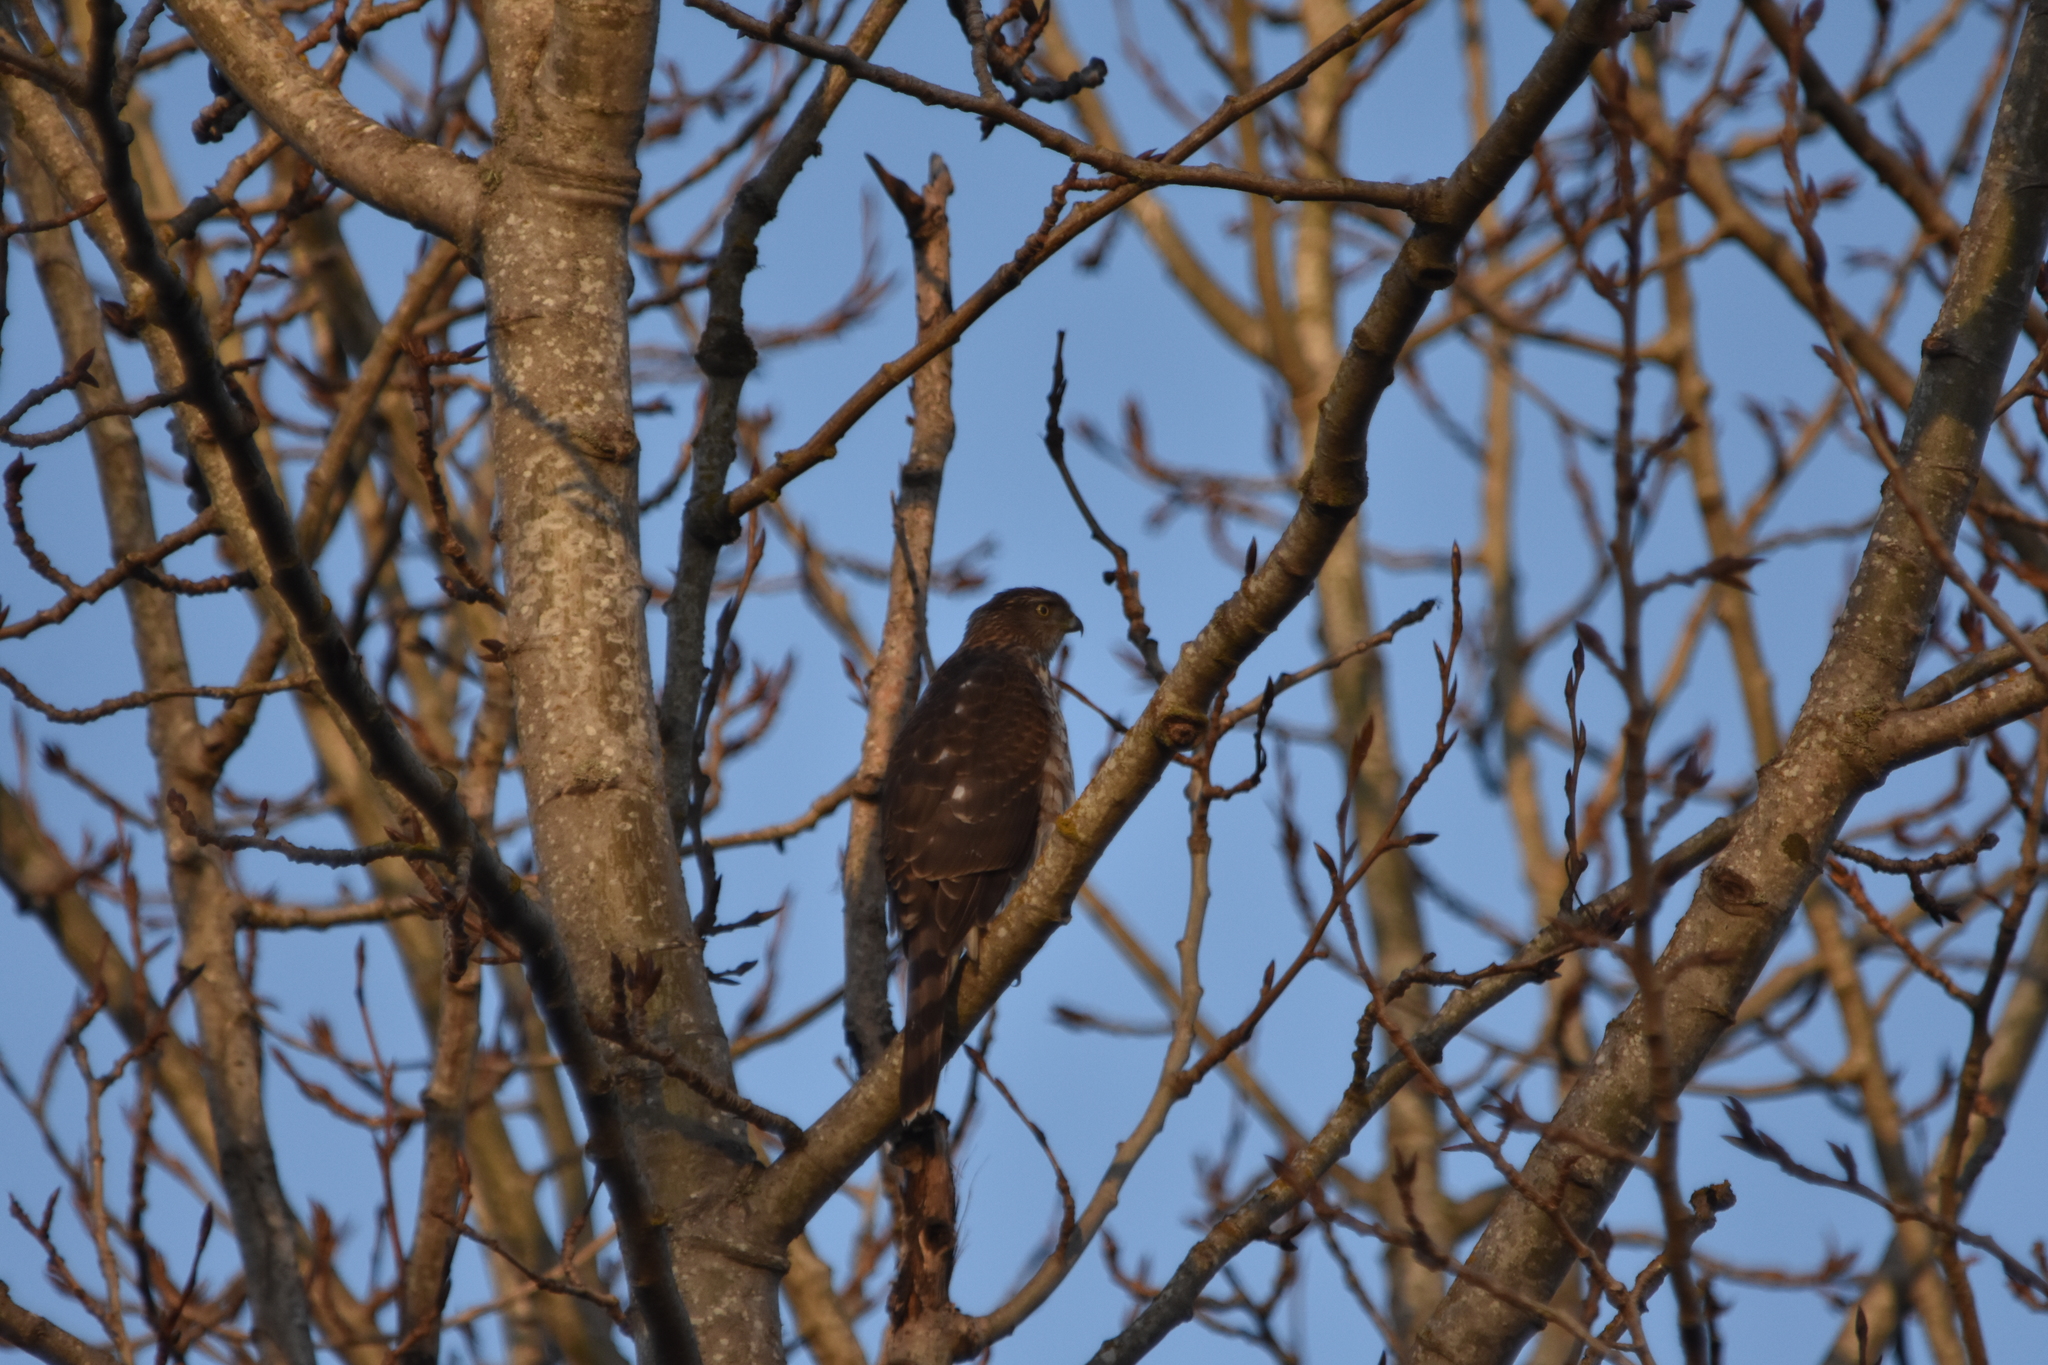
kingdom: Animalia
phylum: Chordata
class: Aves
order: Accipitriformes
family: Accipitridae
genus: Accipiter
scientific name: Accipiter cooperii
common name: Cooper's hawk
